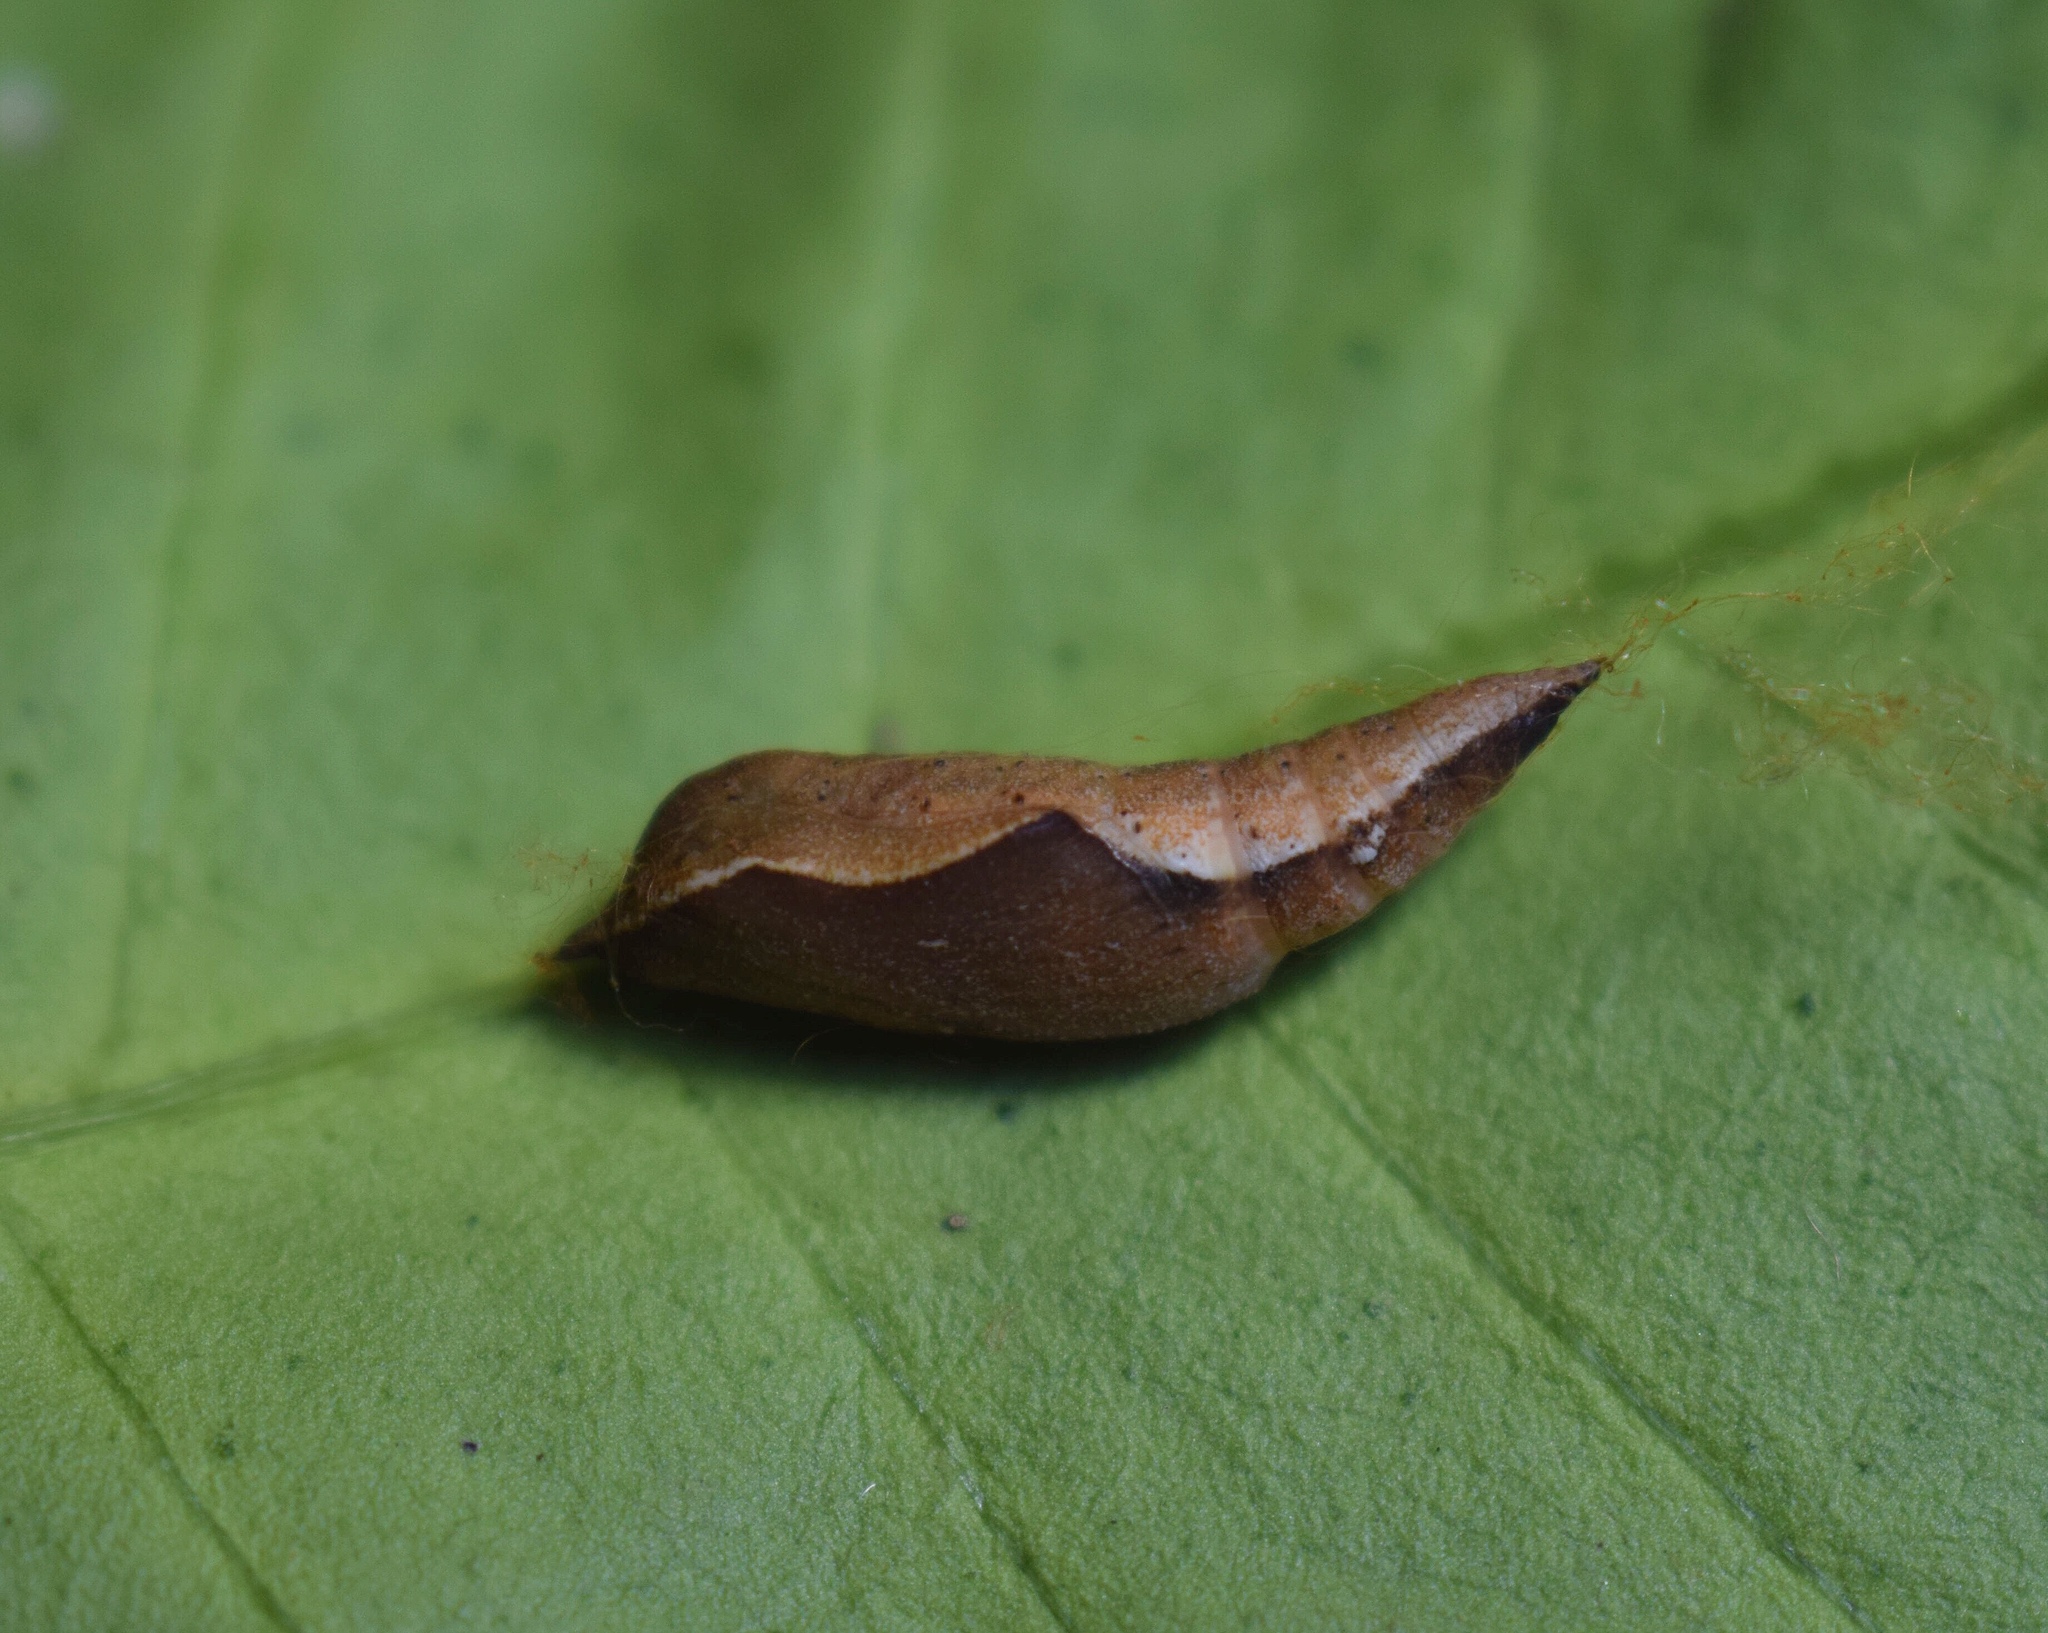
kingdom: Animalia
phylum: Arthropoda
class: Insecta
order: Lepidoptera
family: Geometridae
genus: Traminda
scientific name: Traminda obversata
